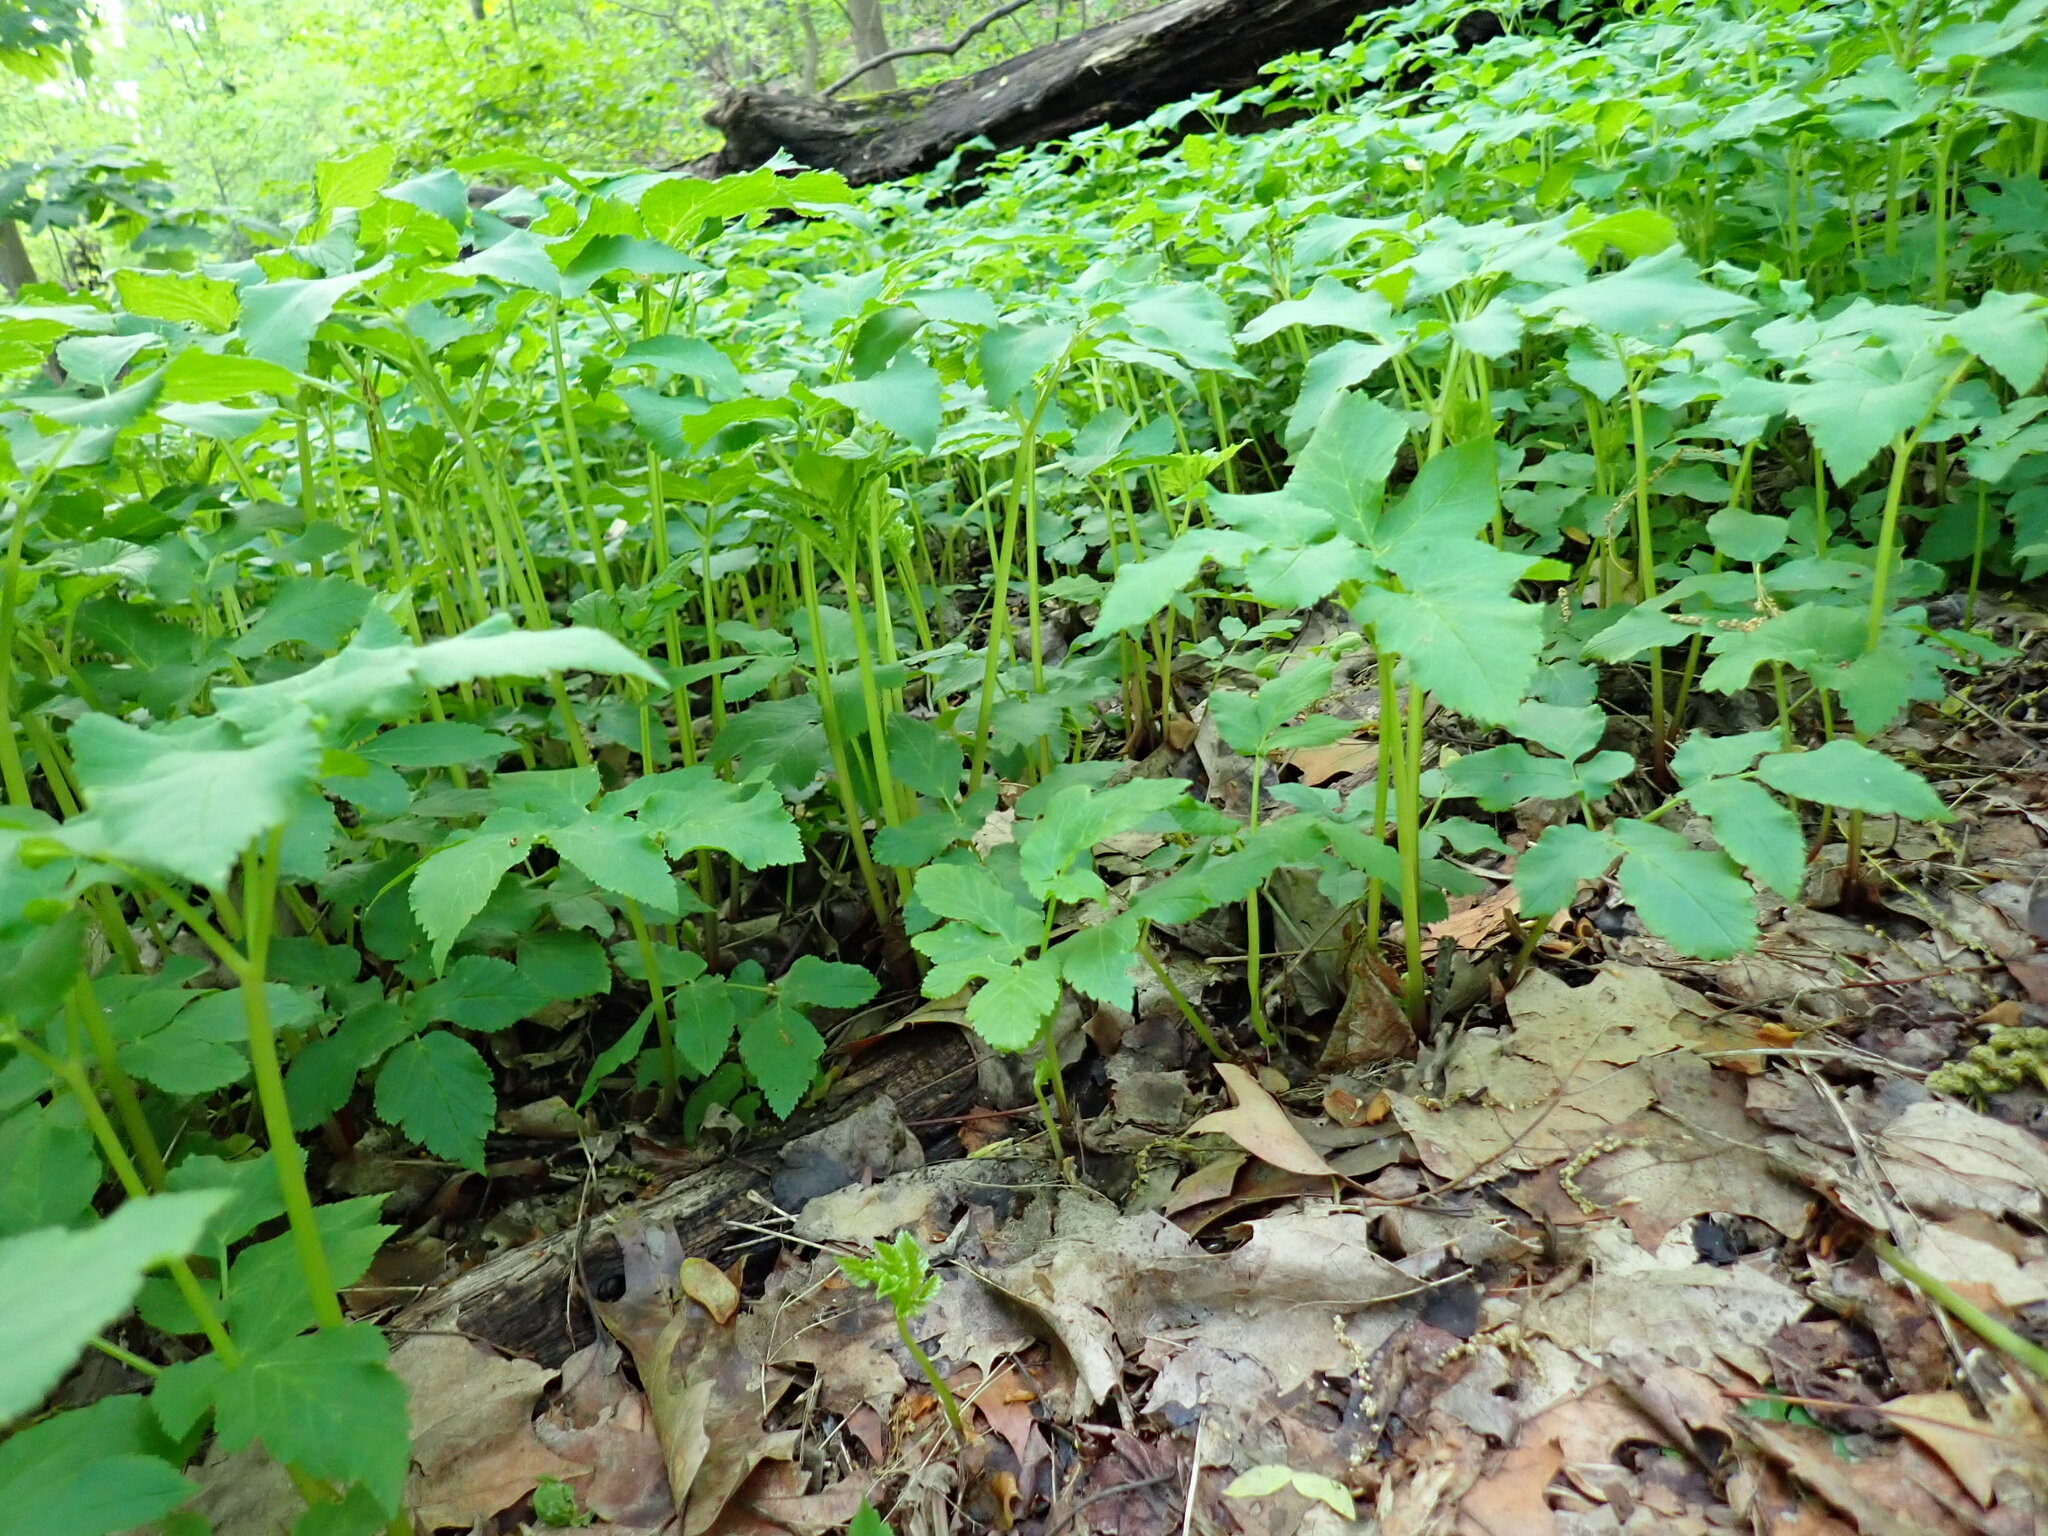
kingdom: Plantae
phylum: Tracheophyta
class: Magnoliopsida
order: Apiales
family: Apiaceae
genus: Aegopodium
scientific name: Aegopodium podagraria
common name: Ground-elder
